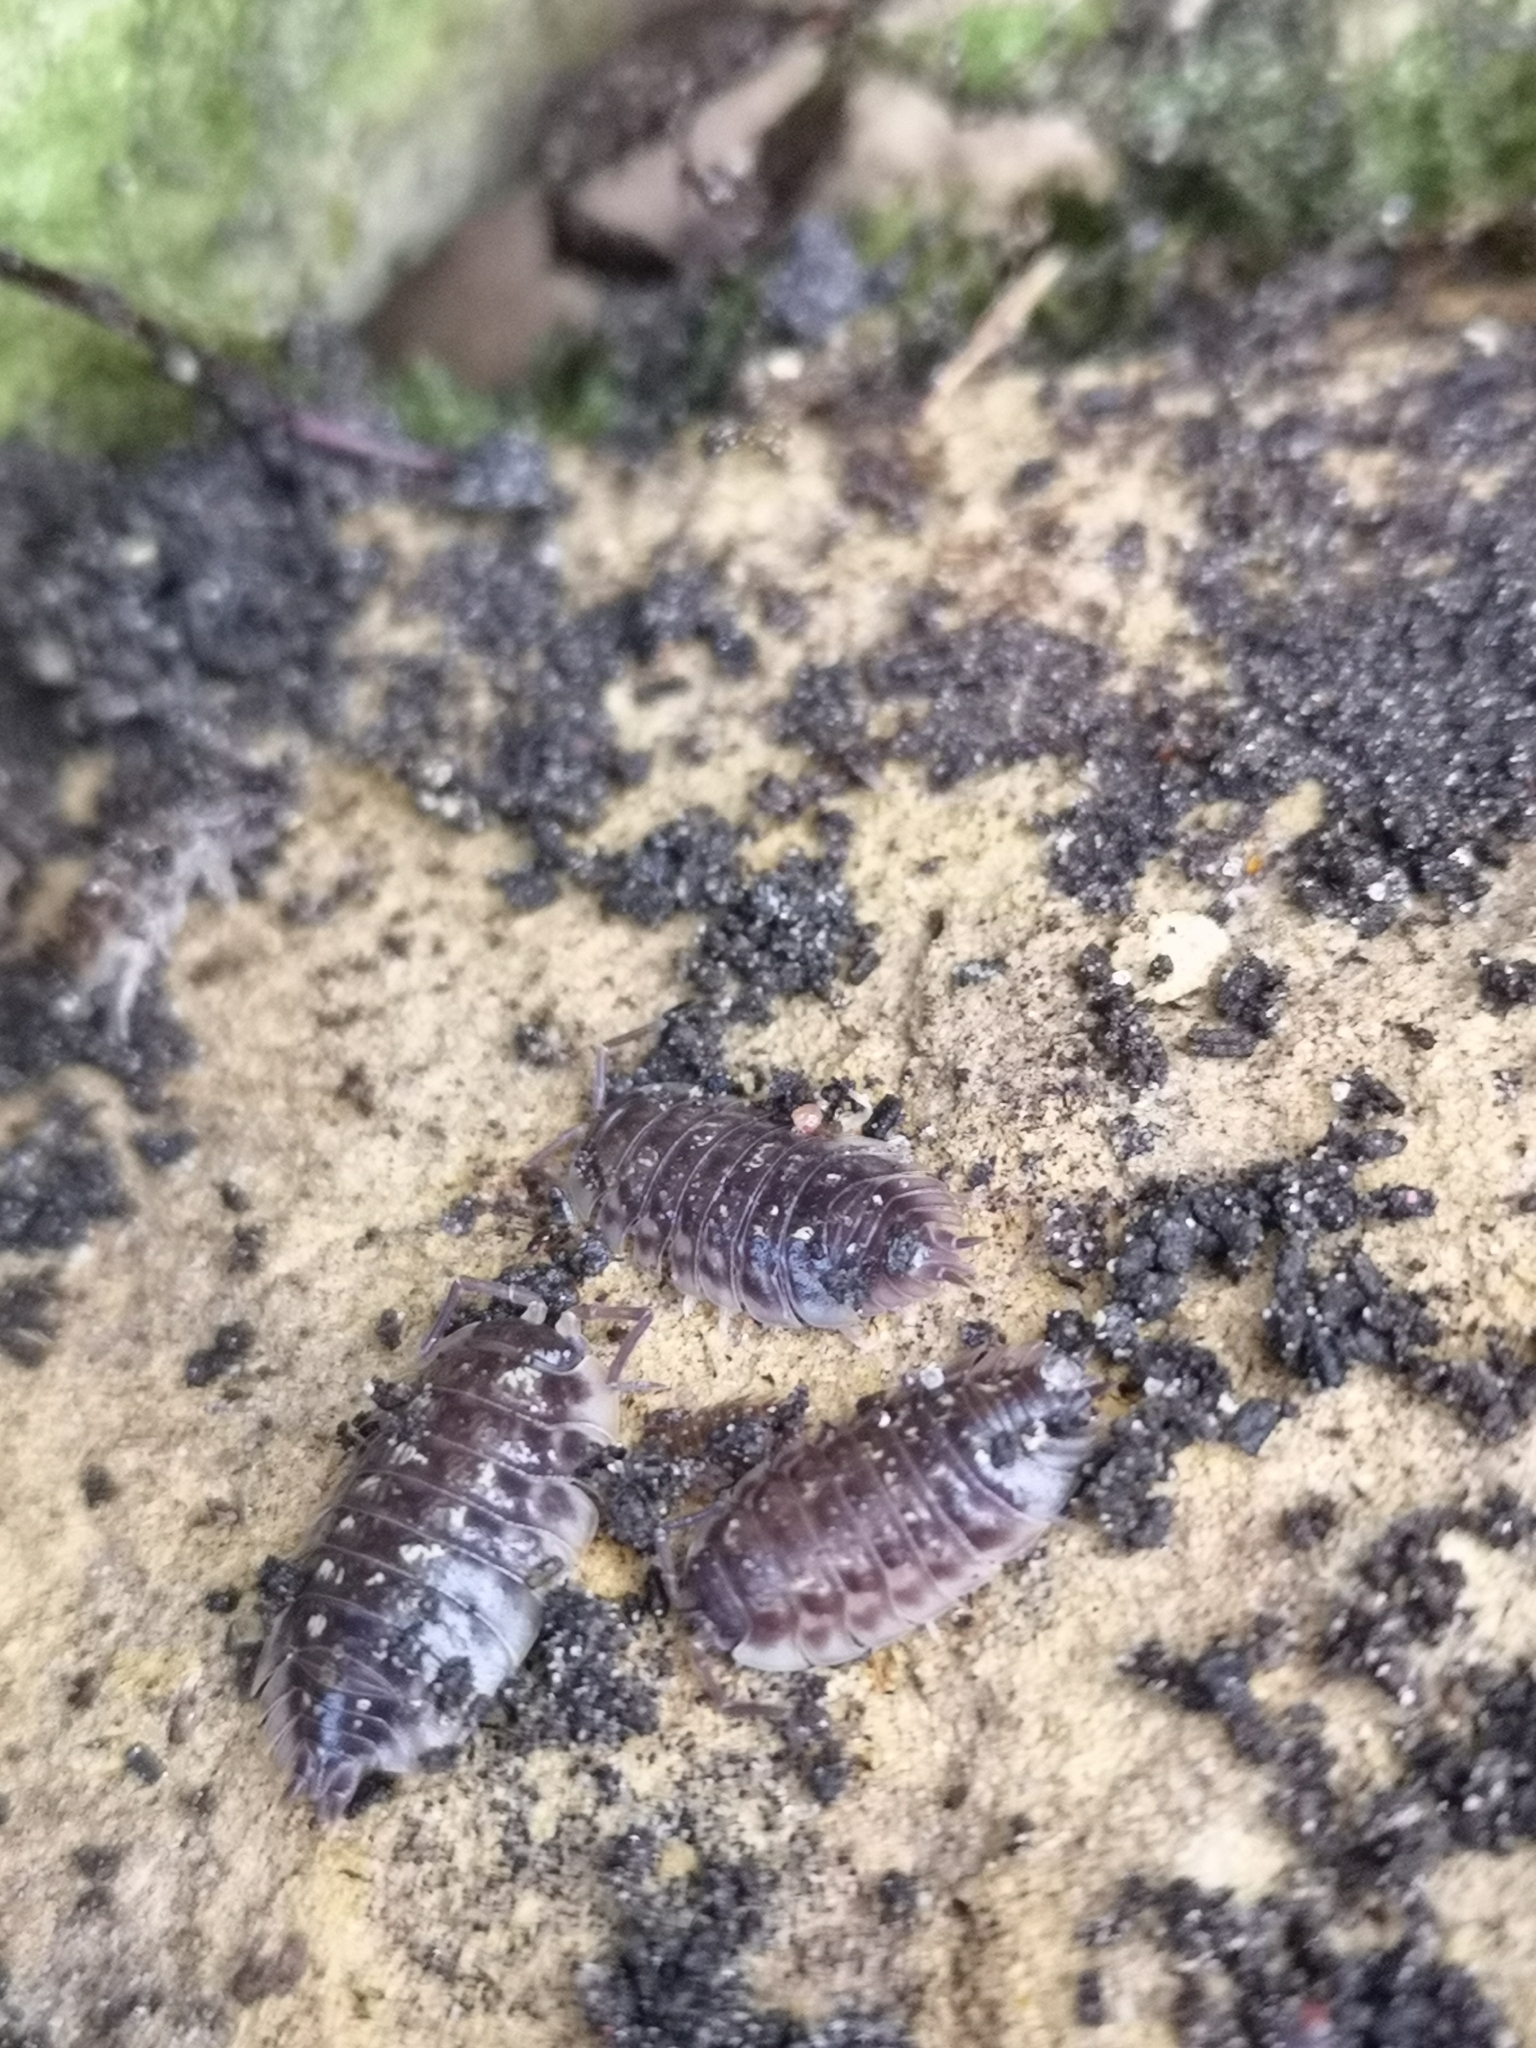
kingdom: Animalia
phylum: Arthropoda
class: Malacostraca
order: Isopoda
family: Oniscidae
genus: Oniscus
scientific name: Oniscus asellus
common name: Common shiny woodlouse
